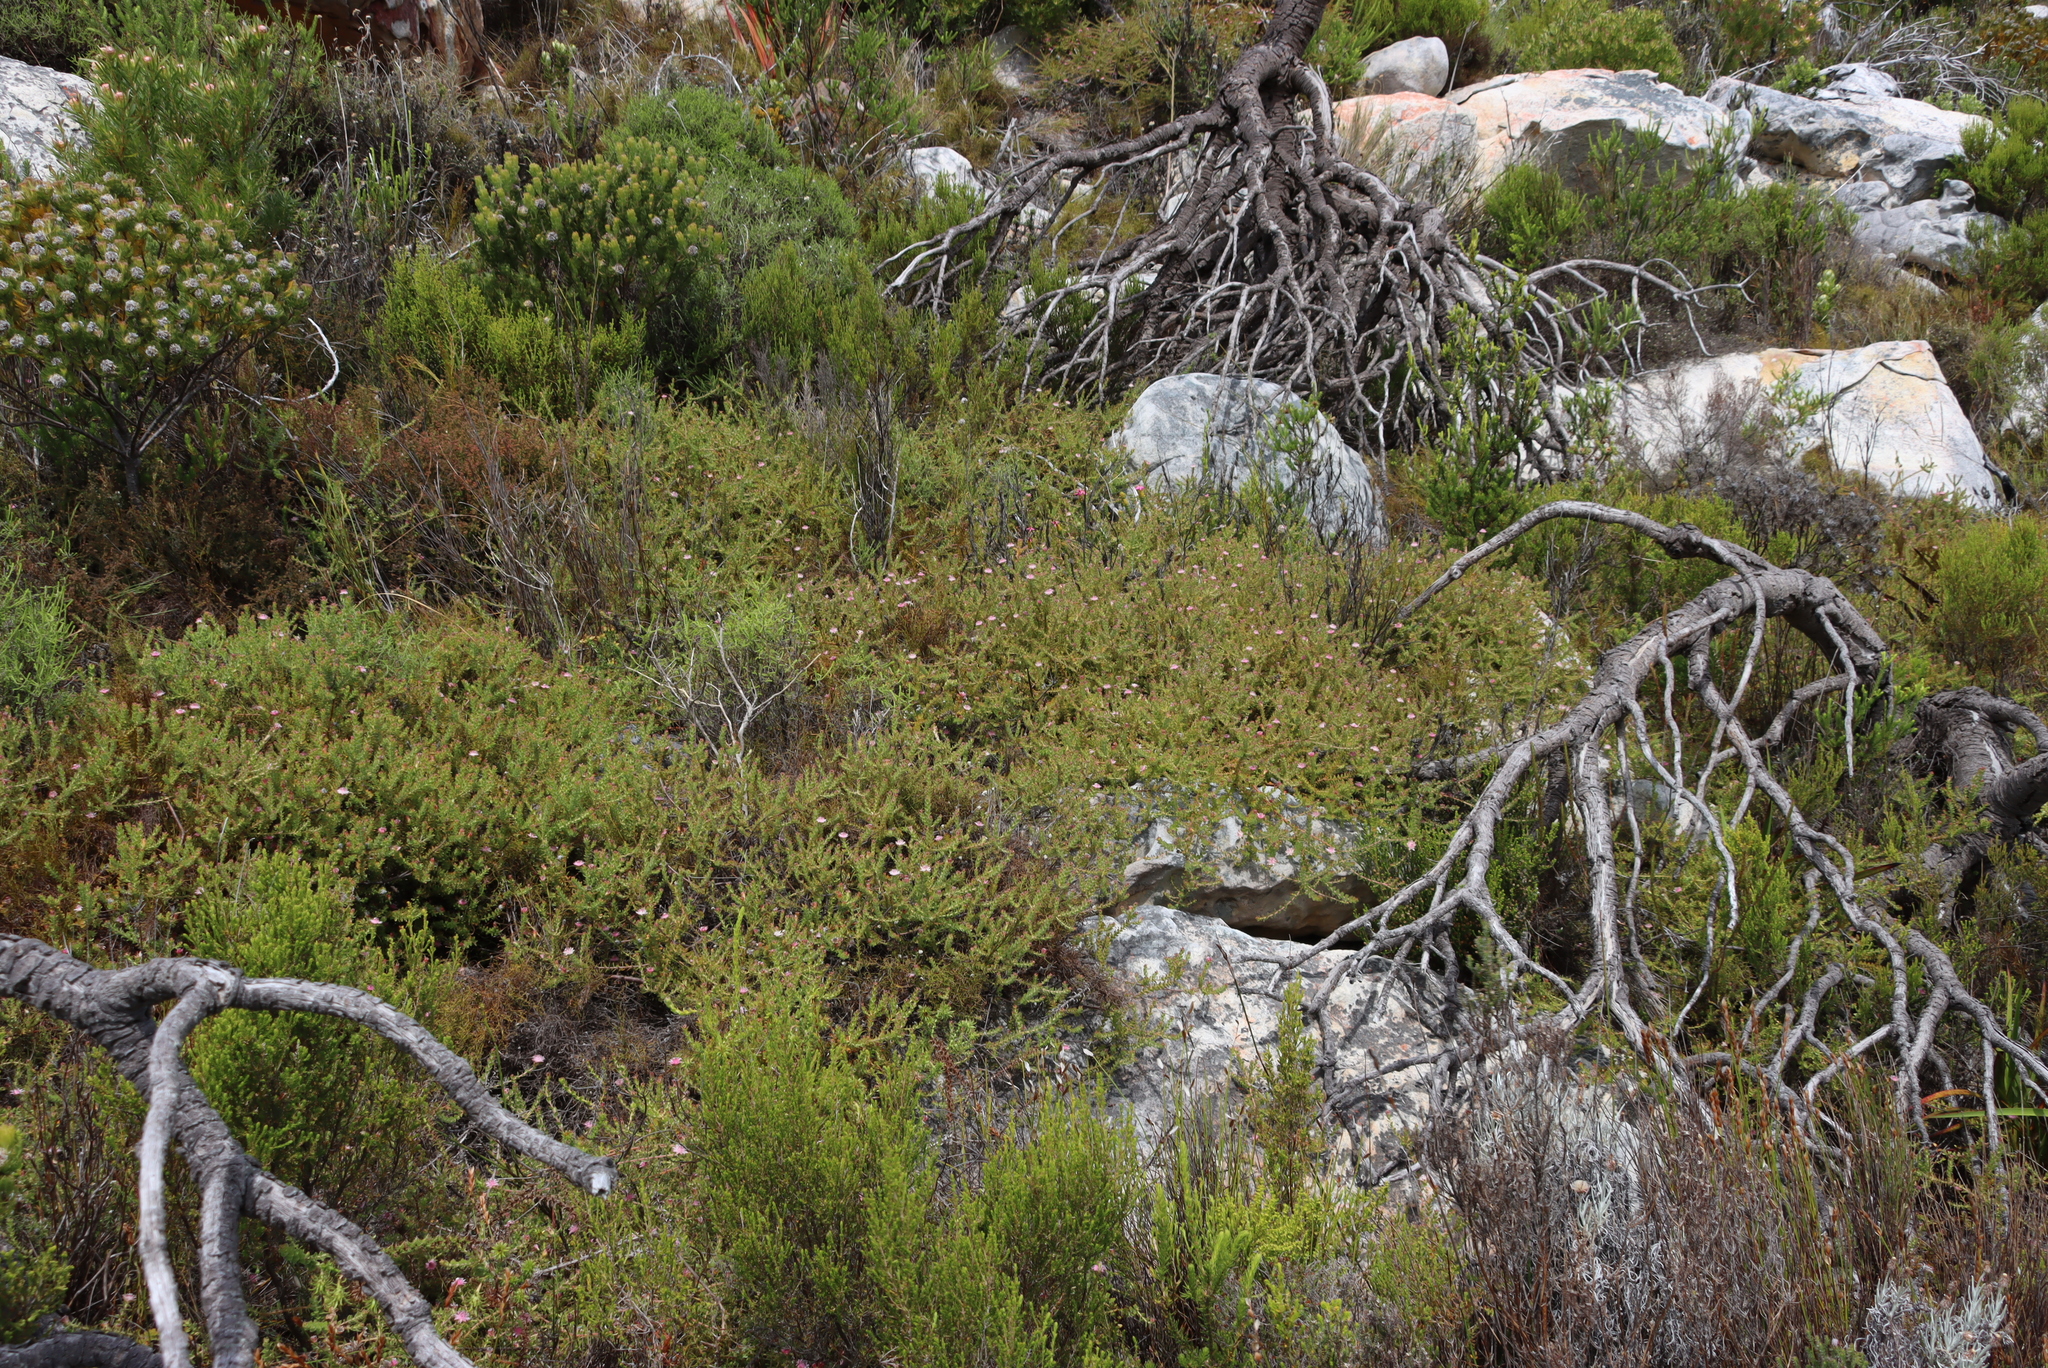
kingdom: Plantae
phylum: Tracheophyta
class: Magnoliopsida
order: Proteales
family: Proteaceae
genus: Diastella
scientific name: Diastella divaricata
